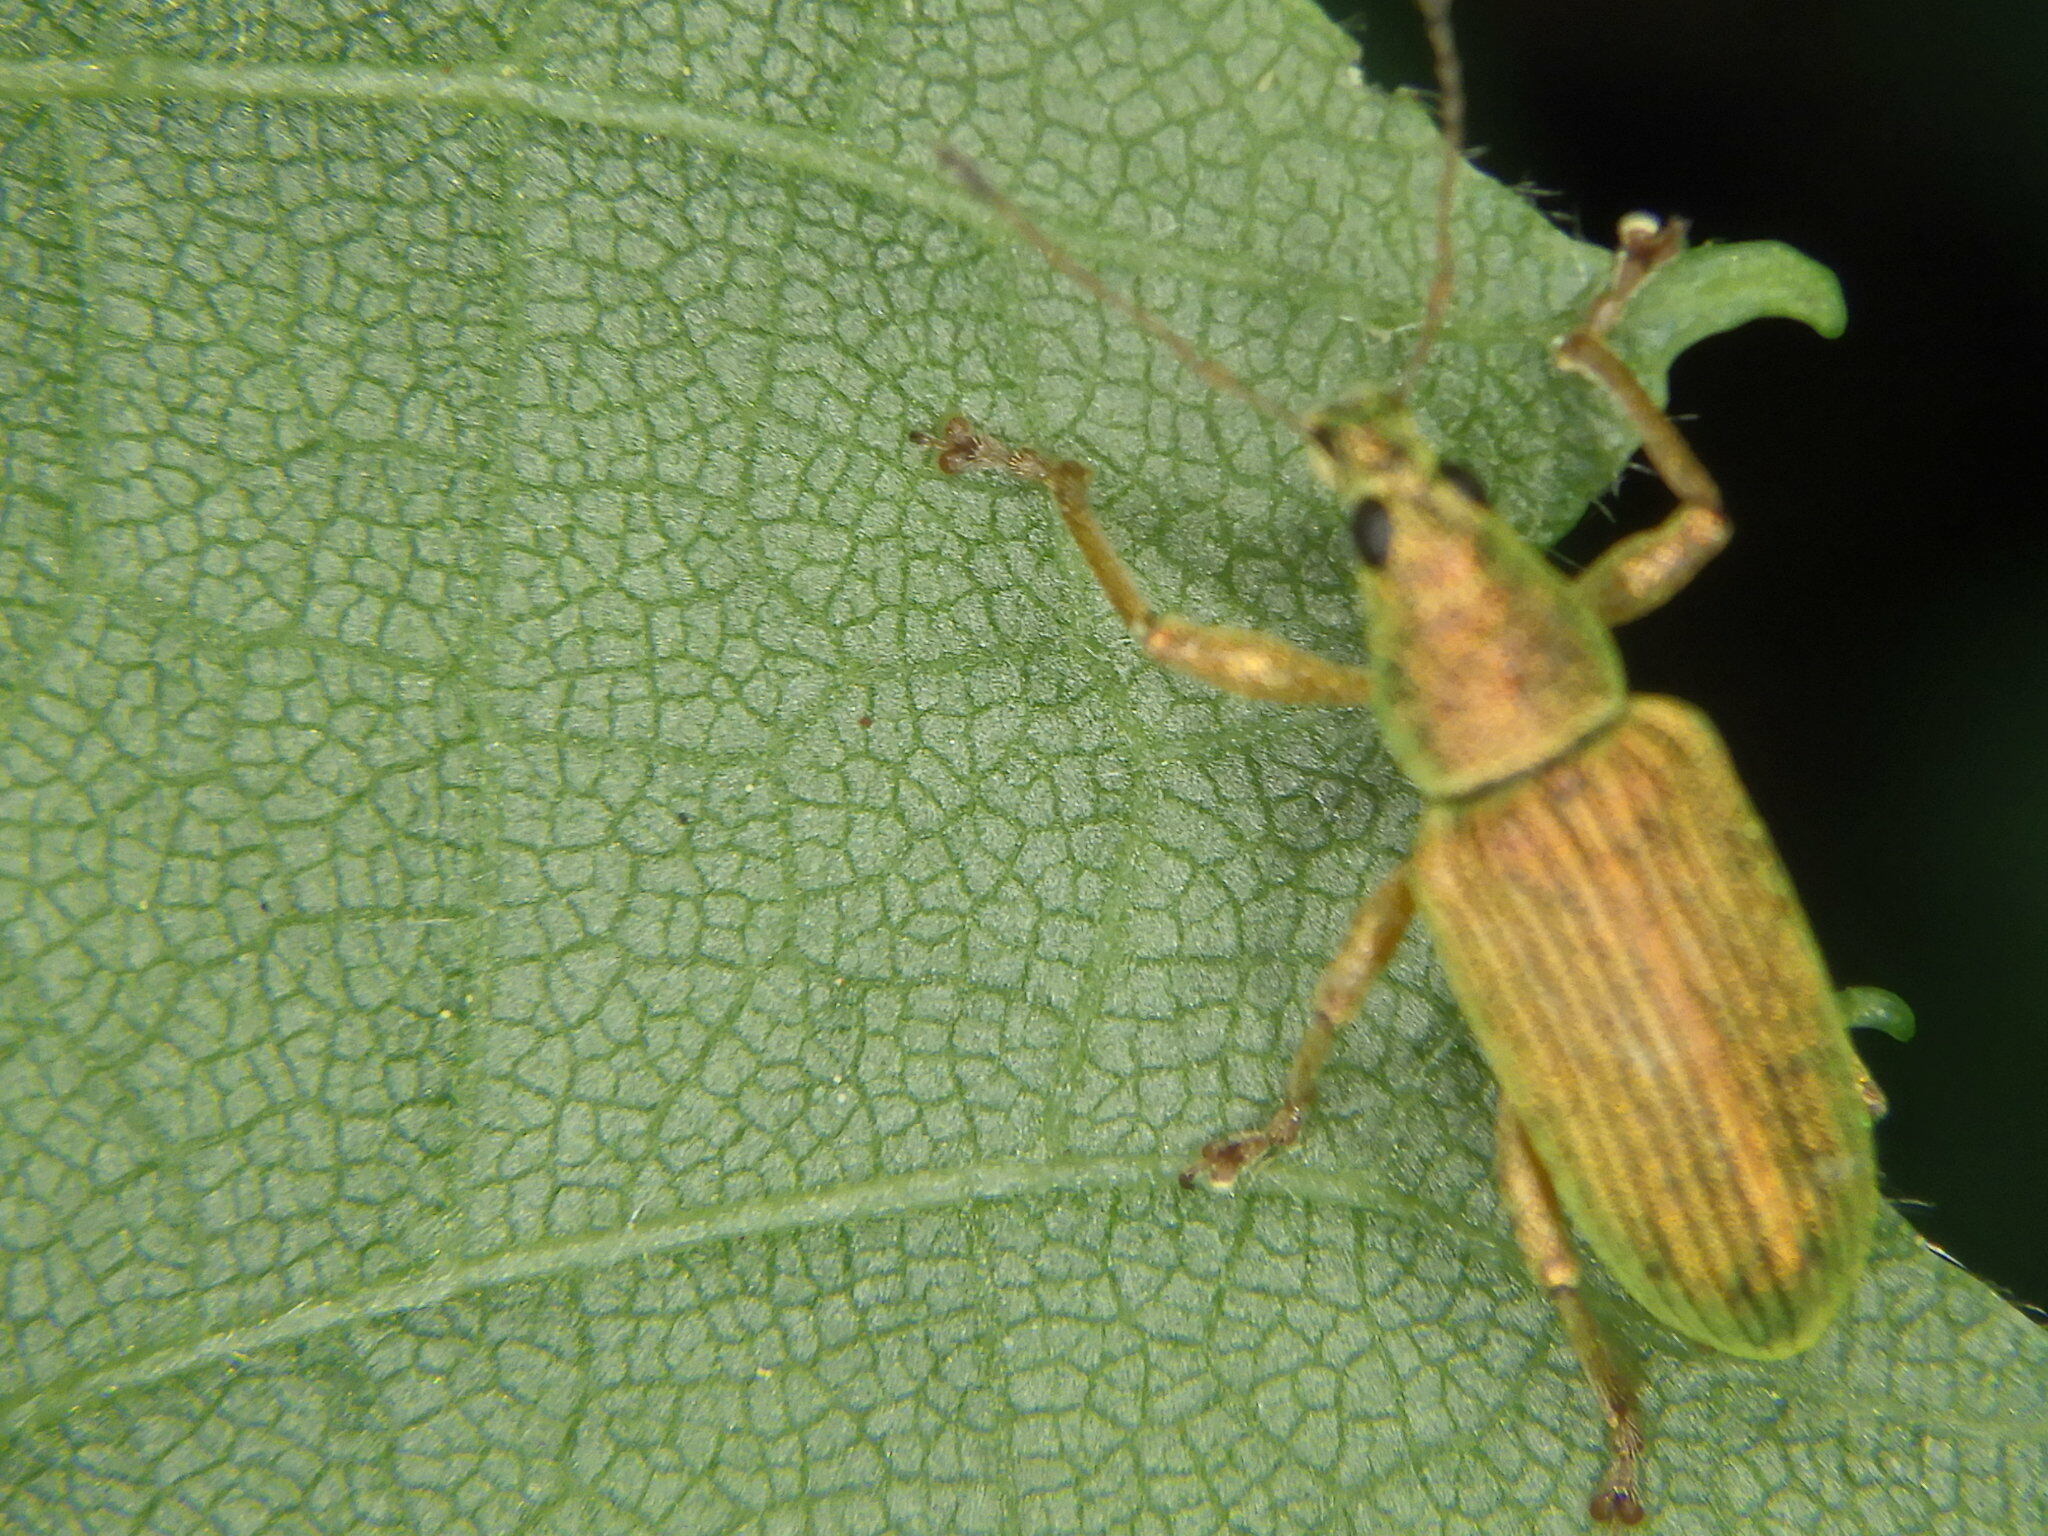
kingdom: Animalia
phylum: Arthropoda
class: Insecta
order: Coleoptera
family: Curculionidae
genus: Polydrusus
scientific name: Polydrusus formosus
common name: Weevil
